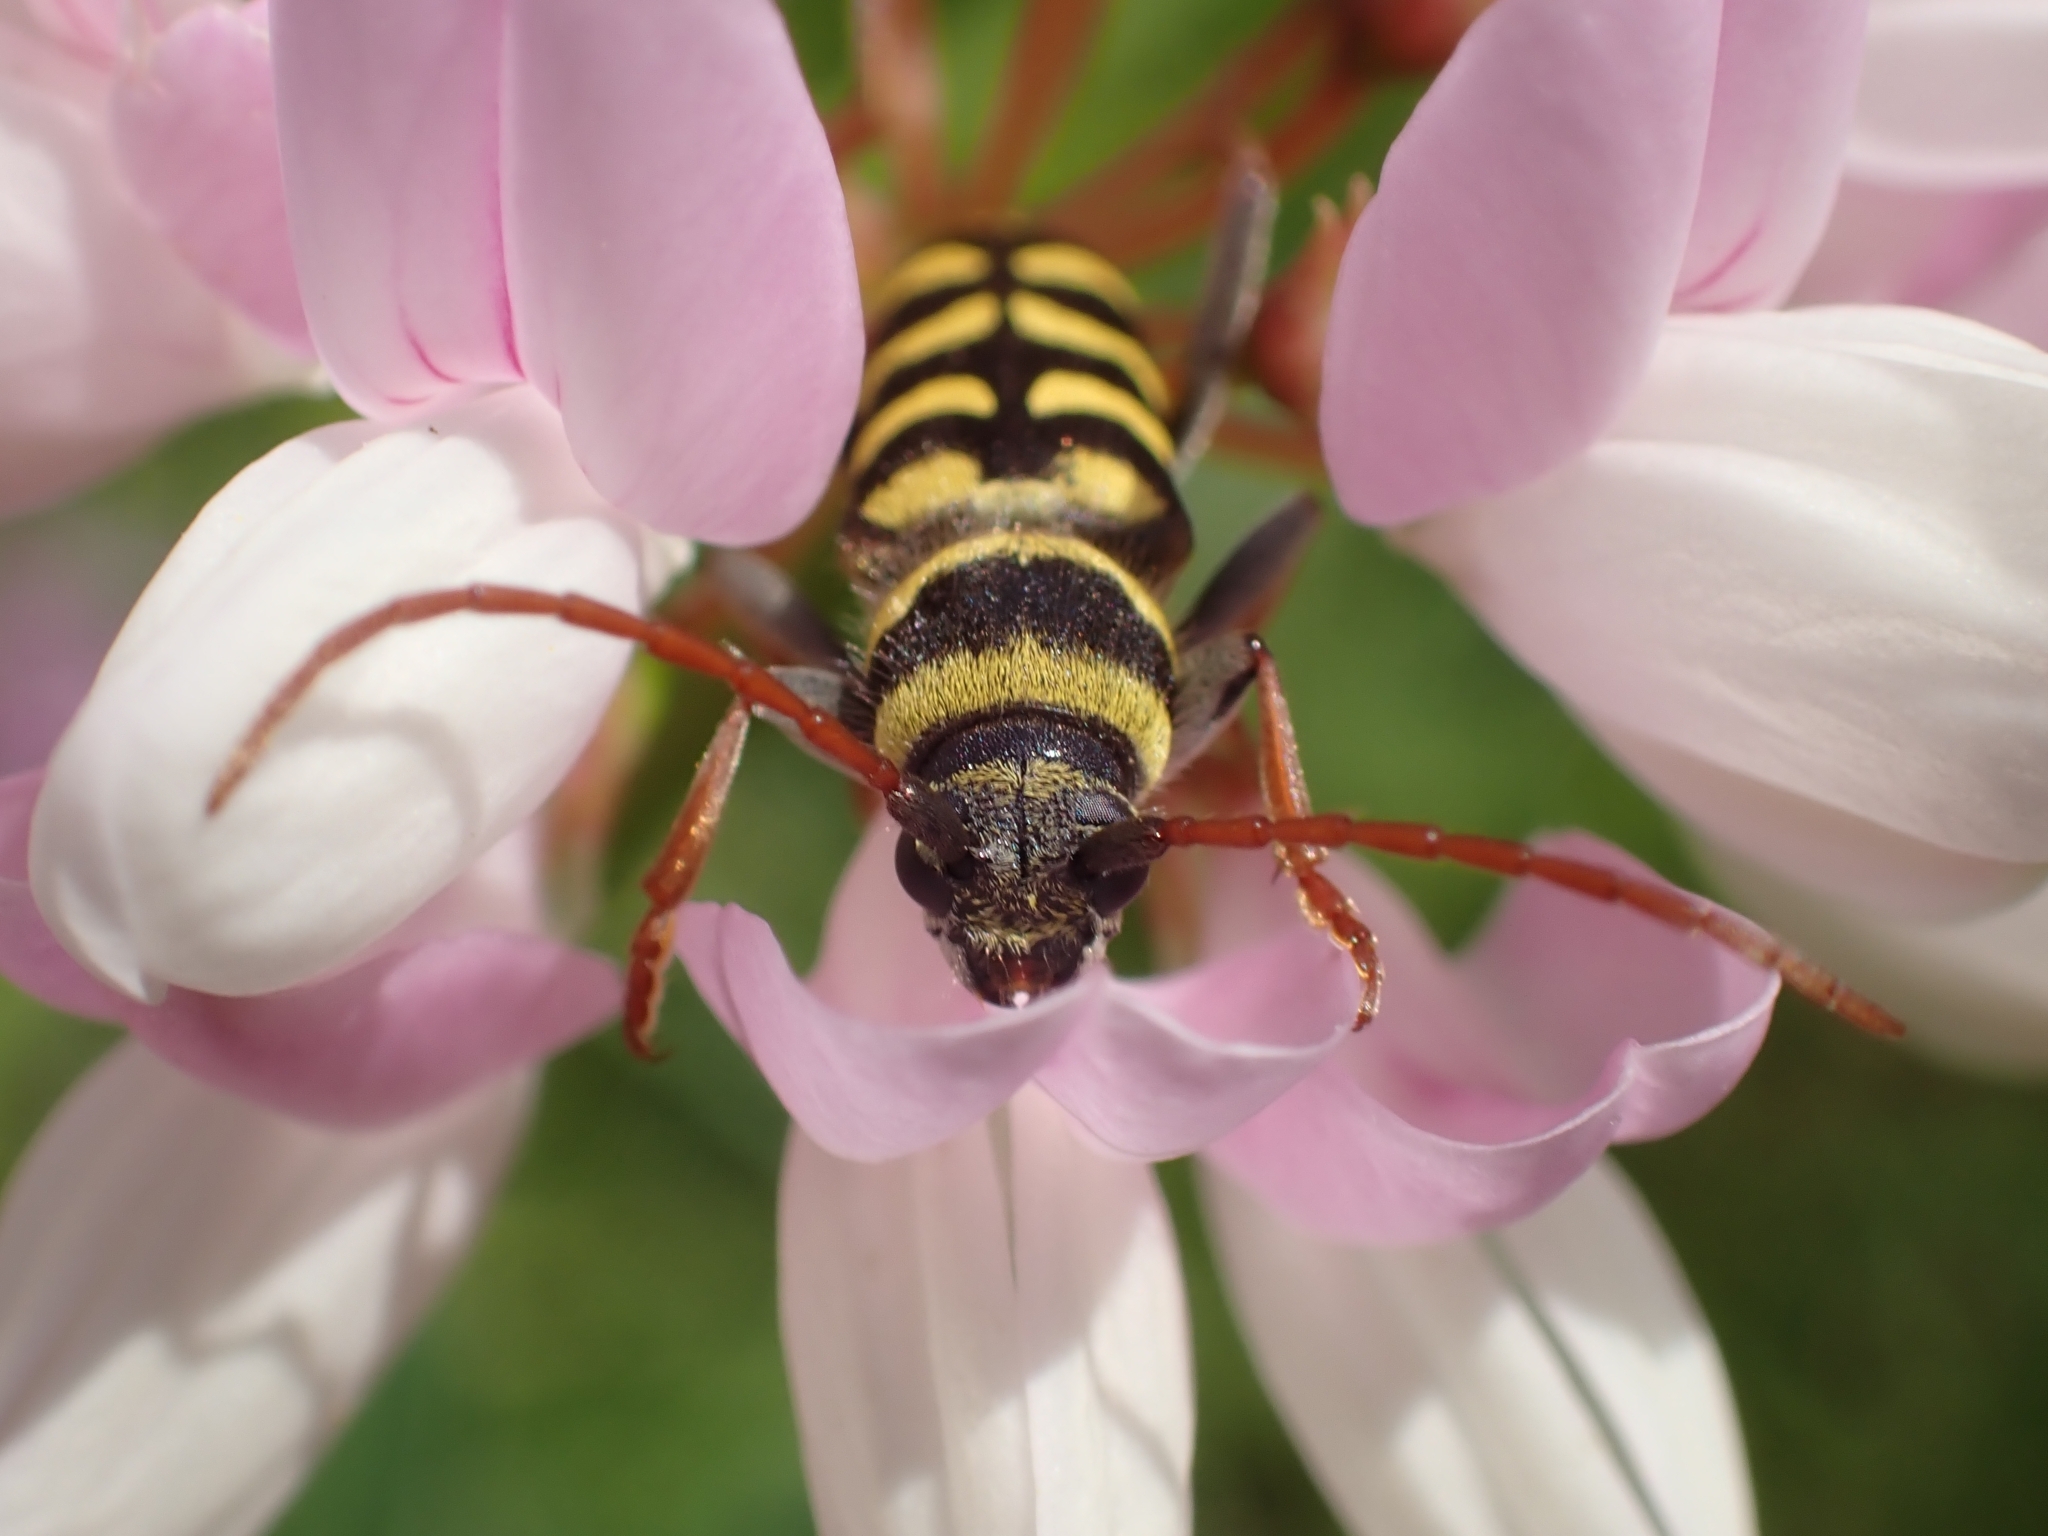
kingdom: Animalia
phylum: Arthropoda
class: Insecta
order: Coleoptera
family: Cerambycidae
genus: Plagionotus
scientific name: Plagionotus floralis
